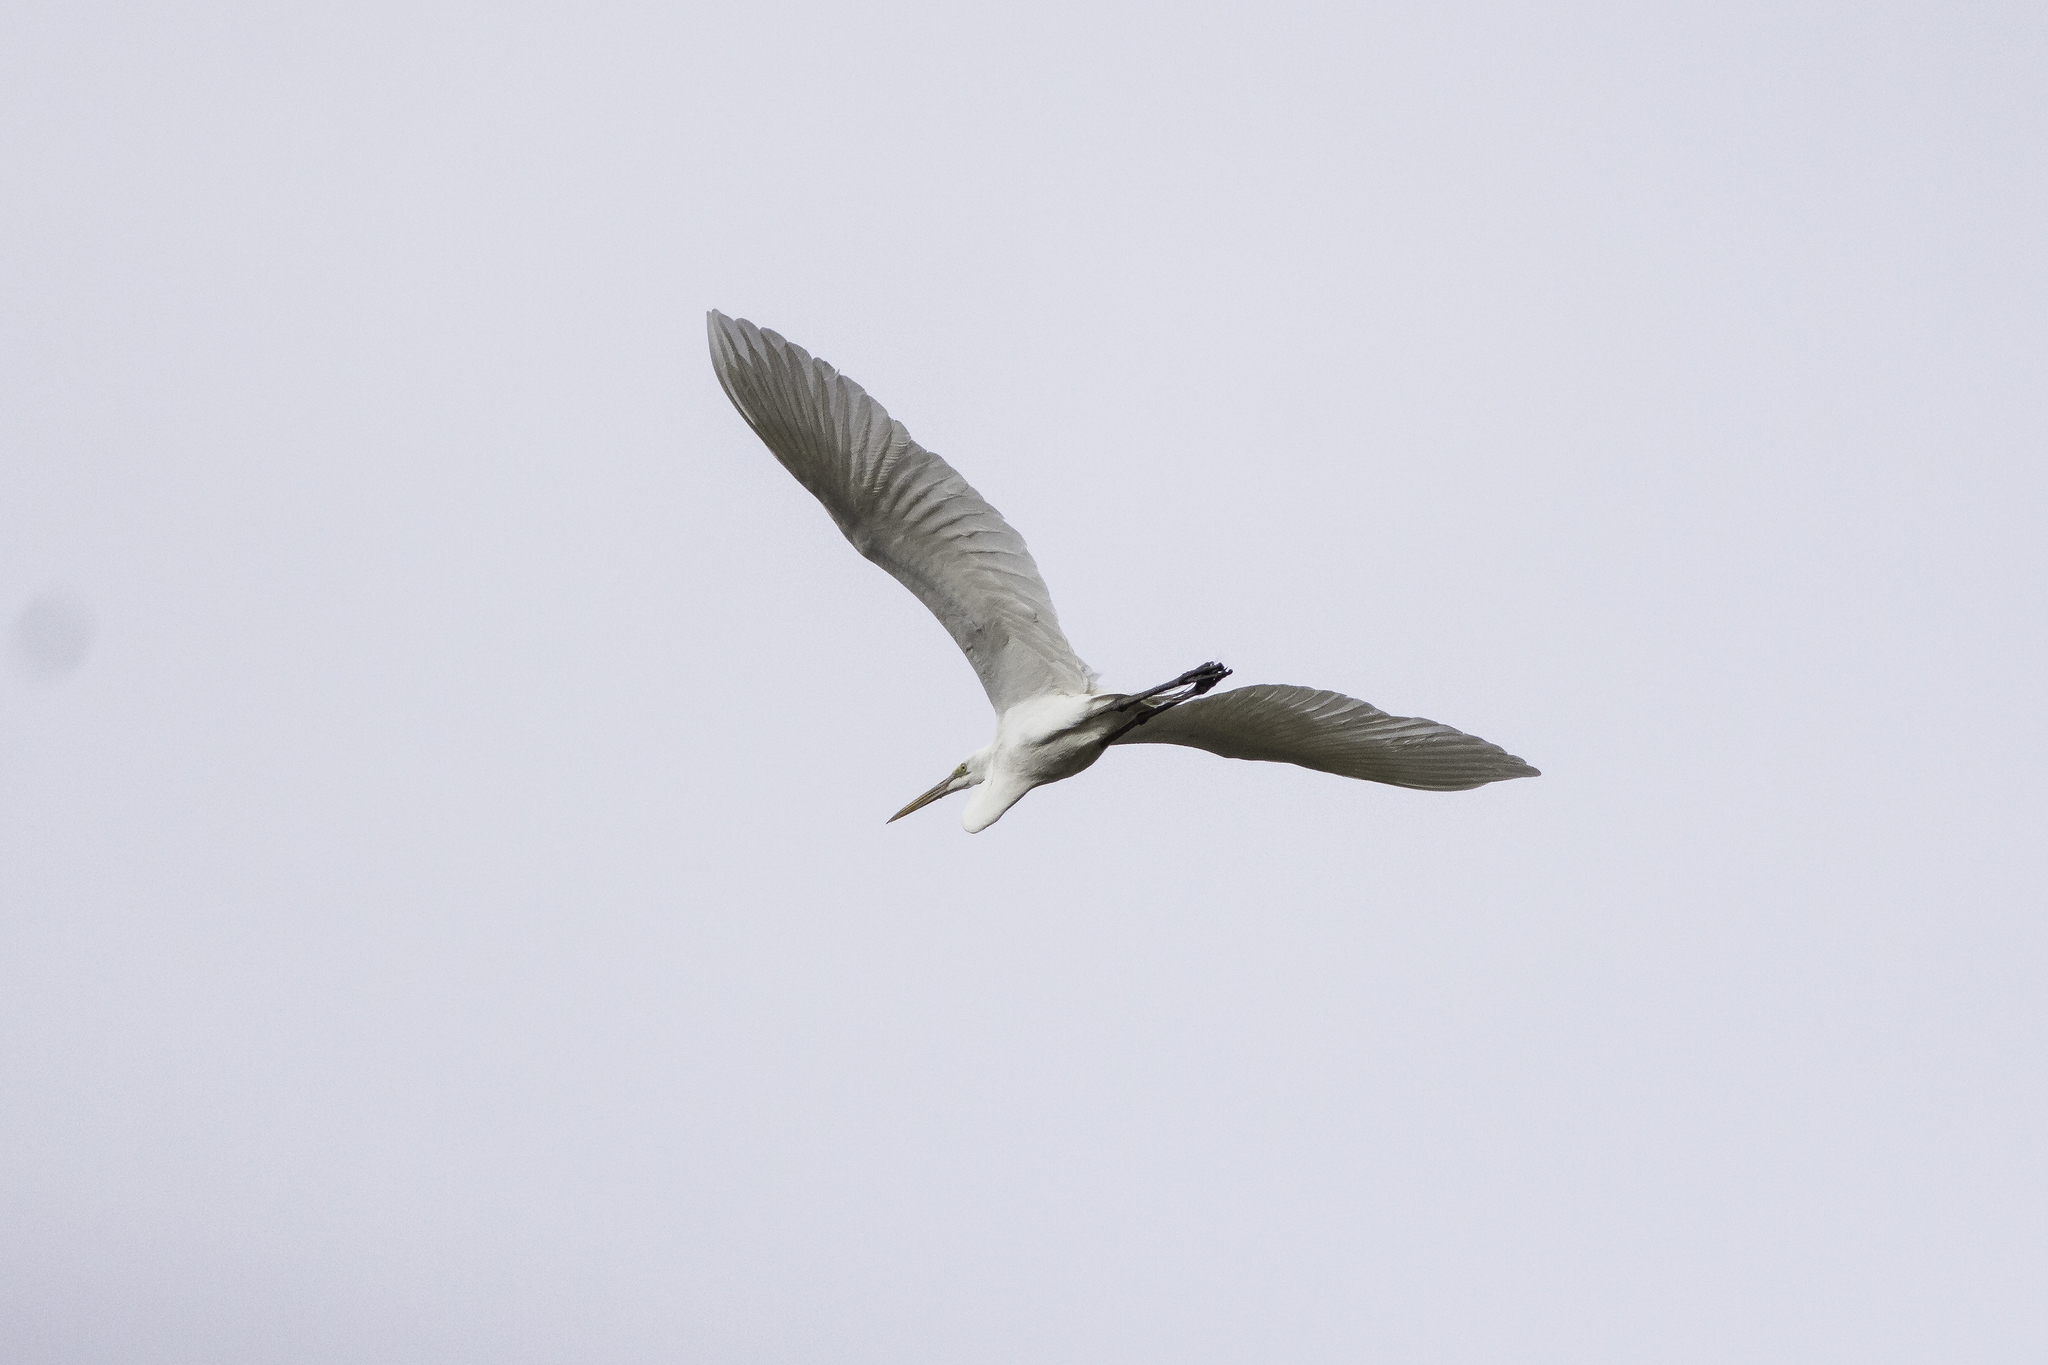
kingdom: Animalia
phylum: Chordata
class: Aves
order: Pelecaniformes
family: Ardeidae
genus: Ardea
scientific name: Ardea alba
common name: Great egret
